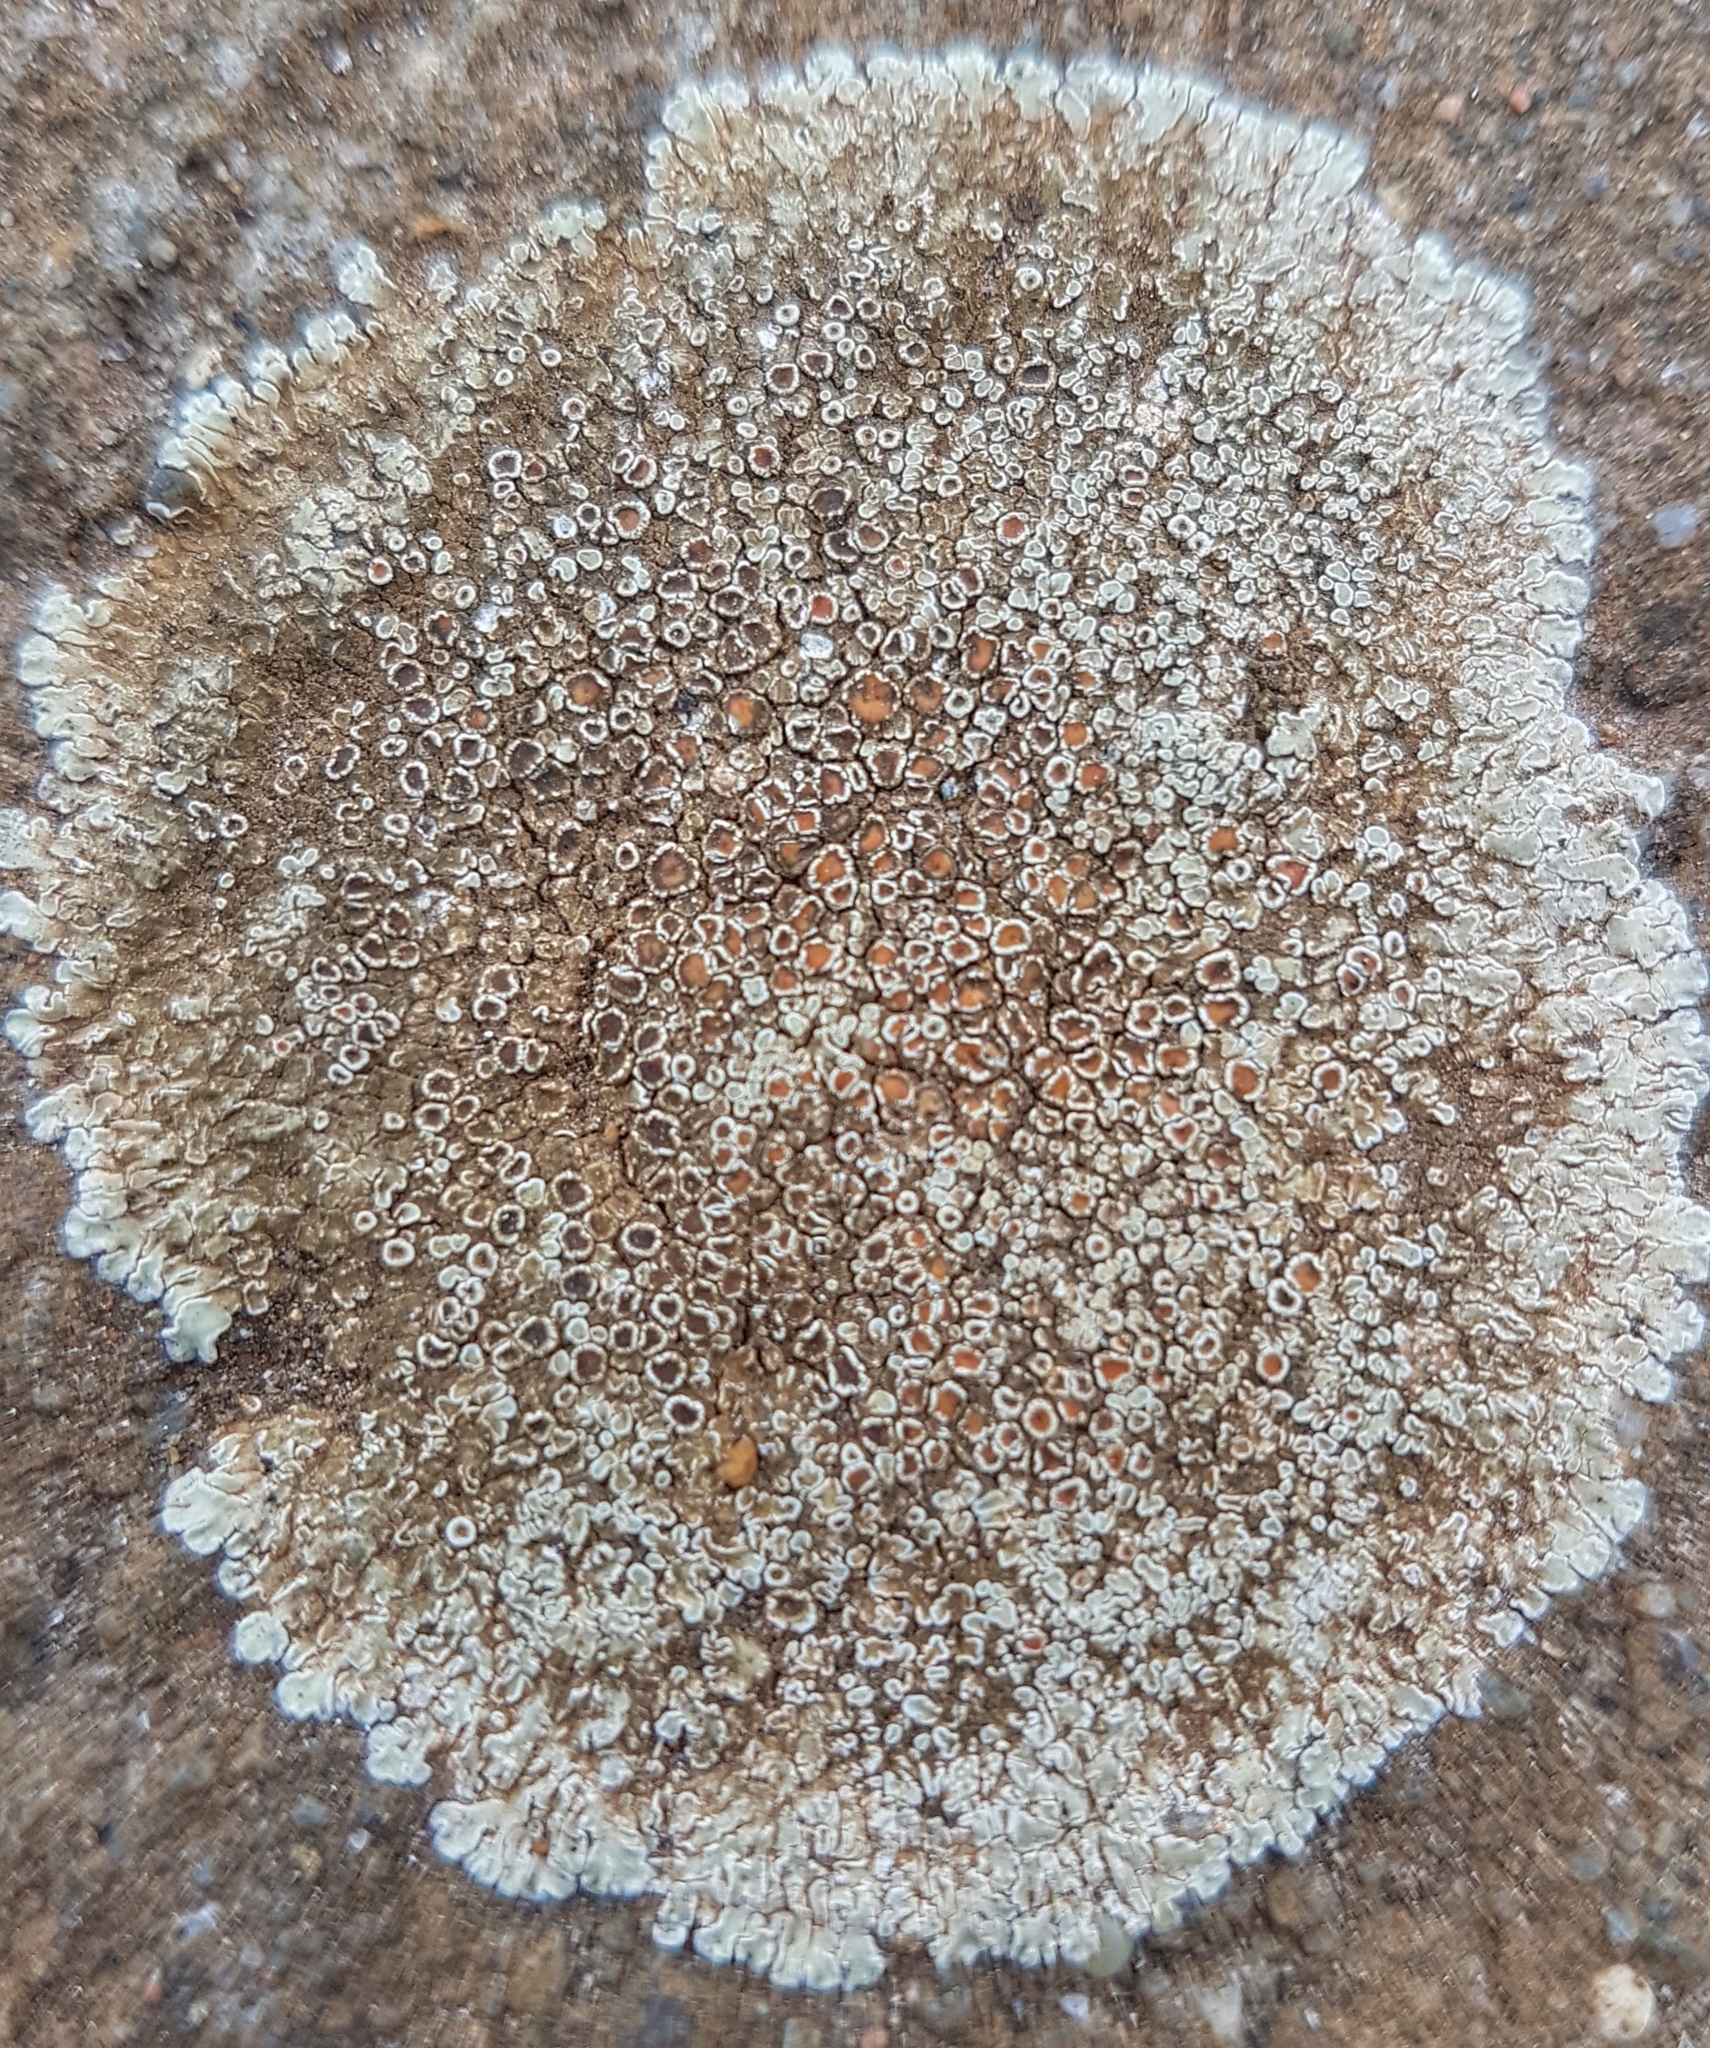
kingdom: Fungi
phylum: Ascomycota
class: Lecanoromycetes
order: Lecanorales
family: Lecanoraceae
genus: Protoparmeliopsis
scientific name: Protoparmeliopsis muralis
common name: Stonewall rim lichen
